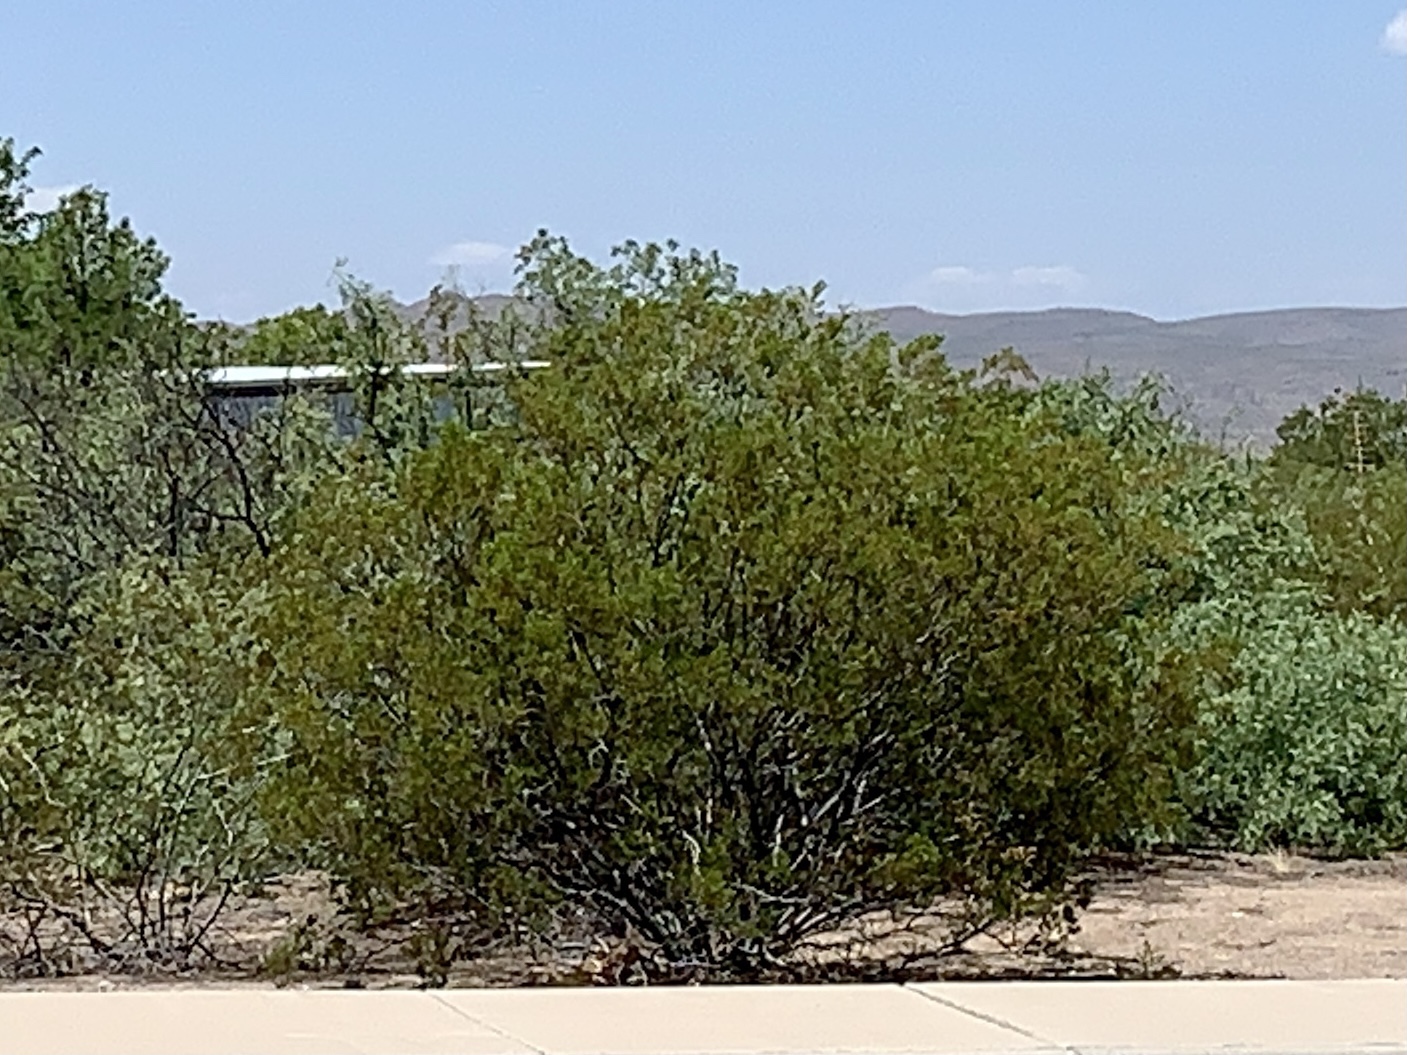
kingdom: Plantae
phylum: Tracheophyta
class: Magnoliopsida
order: Zygophyllales
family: Zygophyllaceae
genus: Larrea
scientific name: Larrea tridentata
